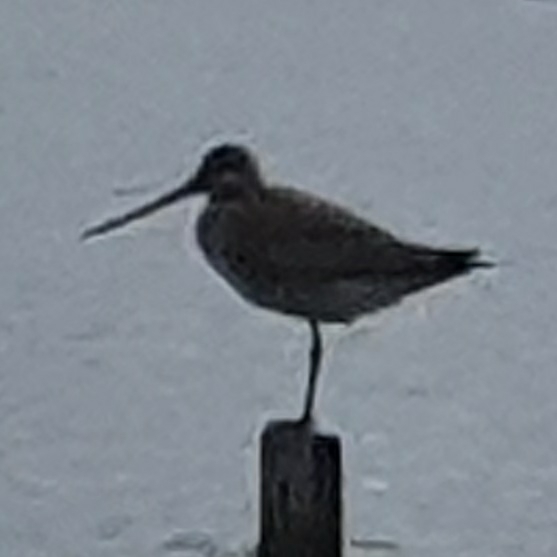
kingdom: Animalia
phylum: Chordata
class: Aves
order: Charadriiformes
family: Scolopacidae
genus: Limosa
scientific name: Limosa lapponica
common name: Bar-tailed godwit
